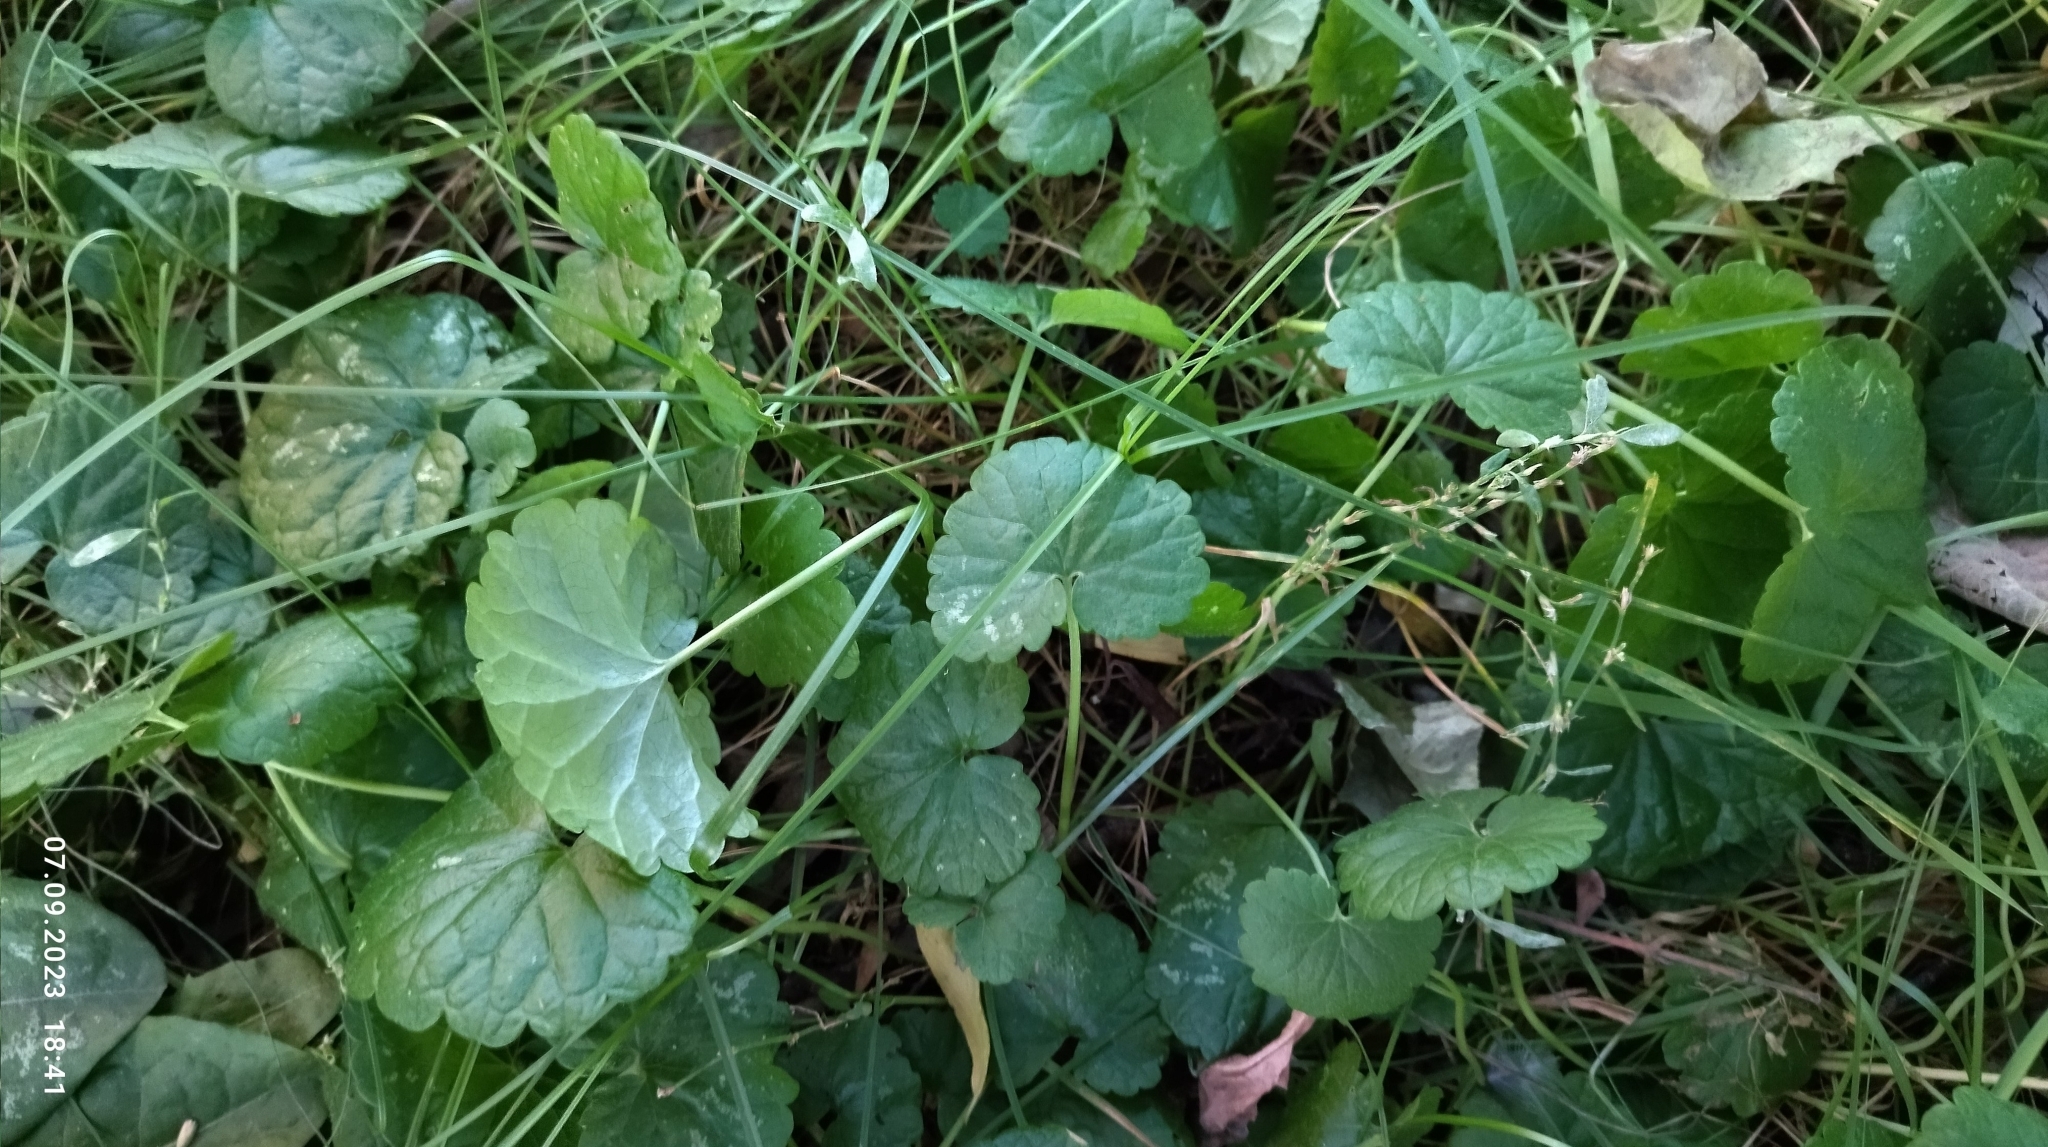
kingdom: Plantae
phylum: Tracheophyta
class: Magnoliopsida
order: Lamiales
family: Lamiaceae
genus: Glechoma
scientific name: Glechoma hederacea
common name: Ground ivy
